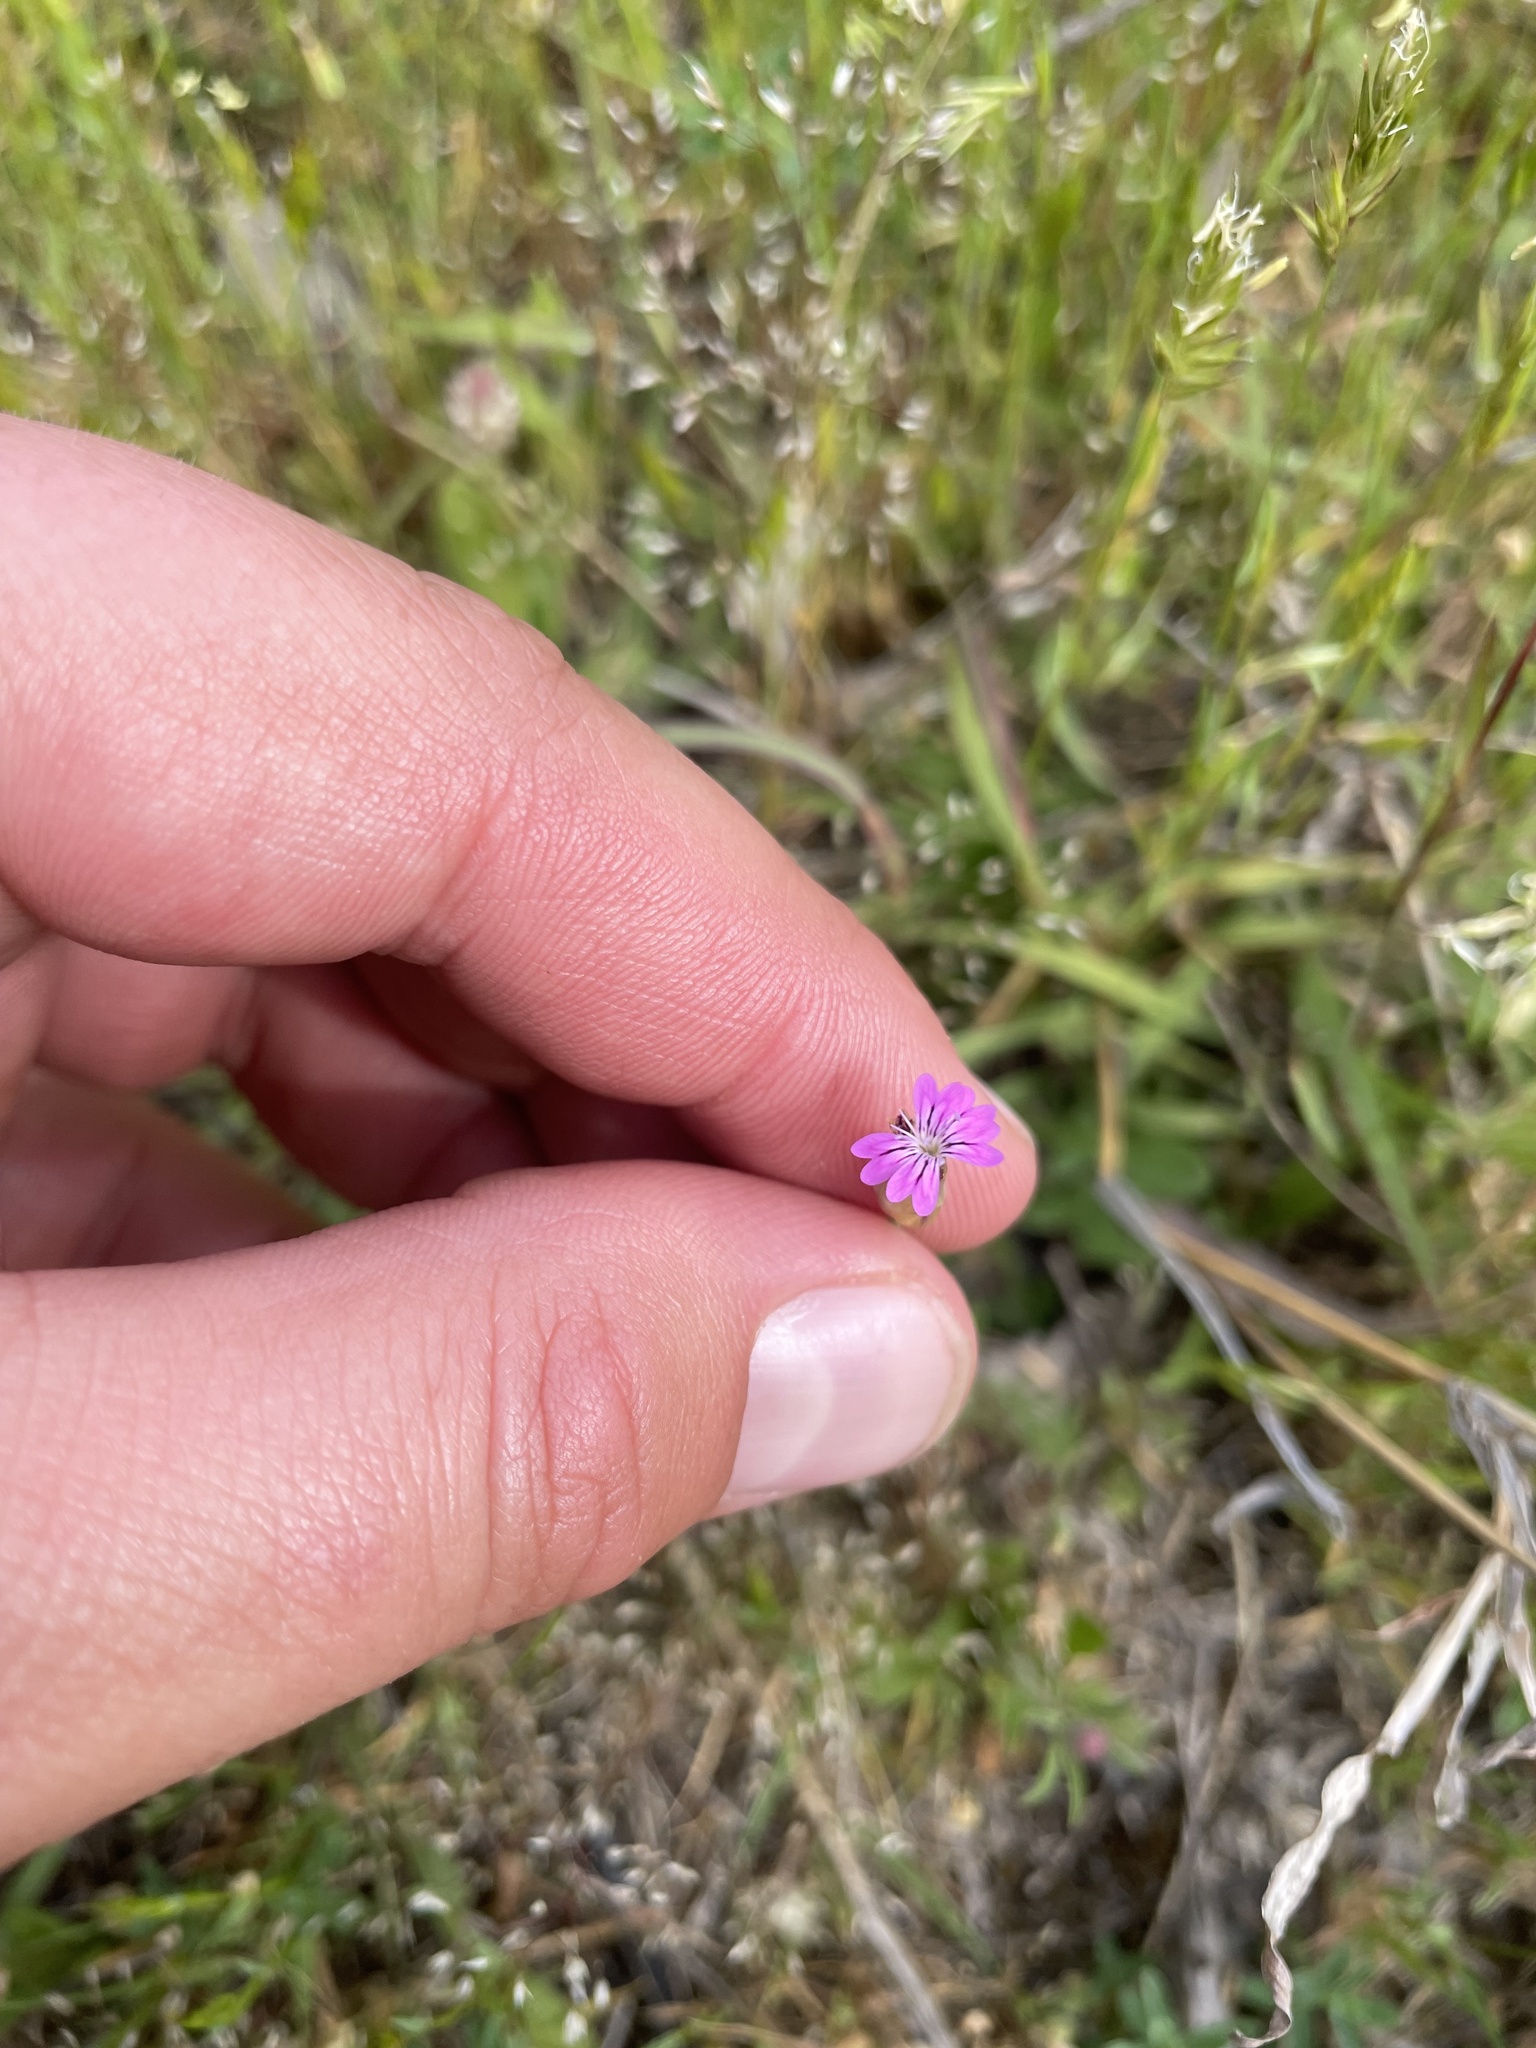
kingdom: Plantae
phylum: Tracheophyta
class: Magnoliopsida
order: Caryophyllales
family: Caryophyllaceae
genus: Petrorhagia
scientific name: Petrorhagia
